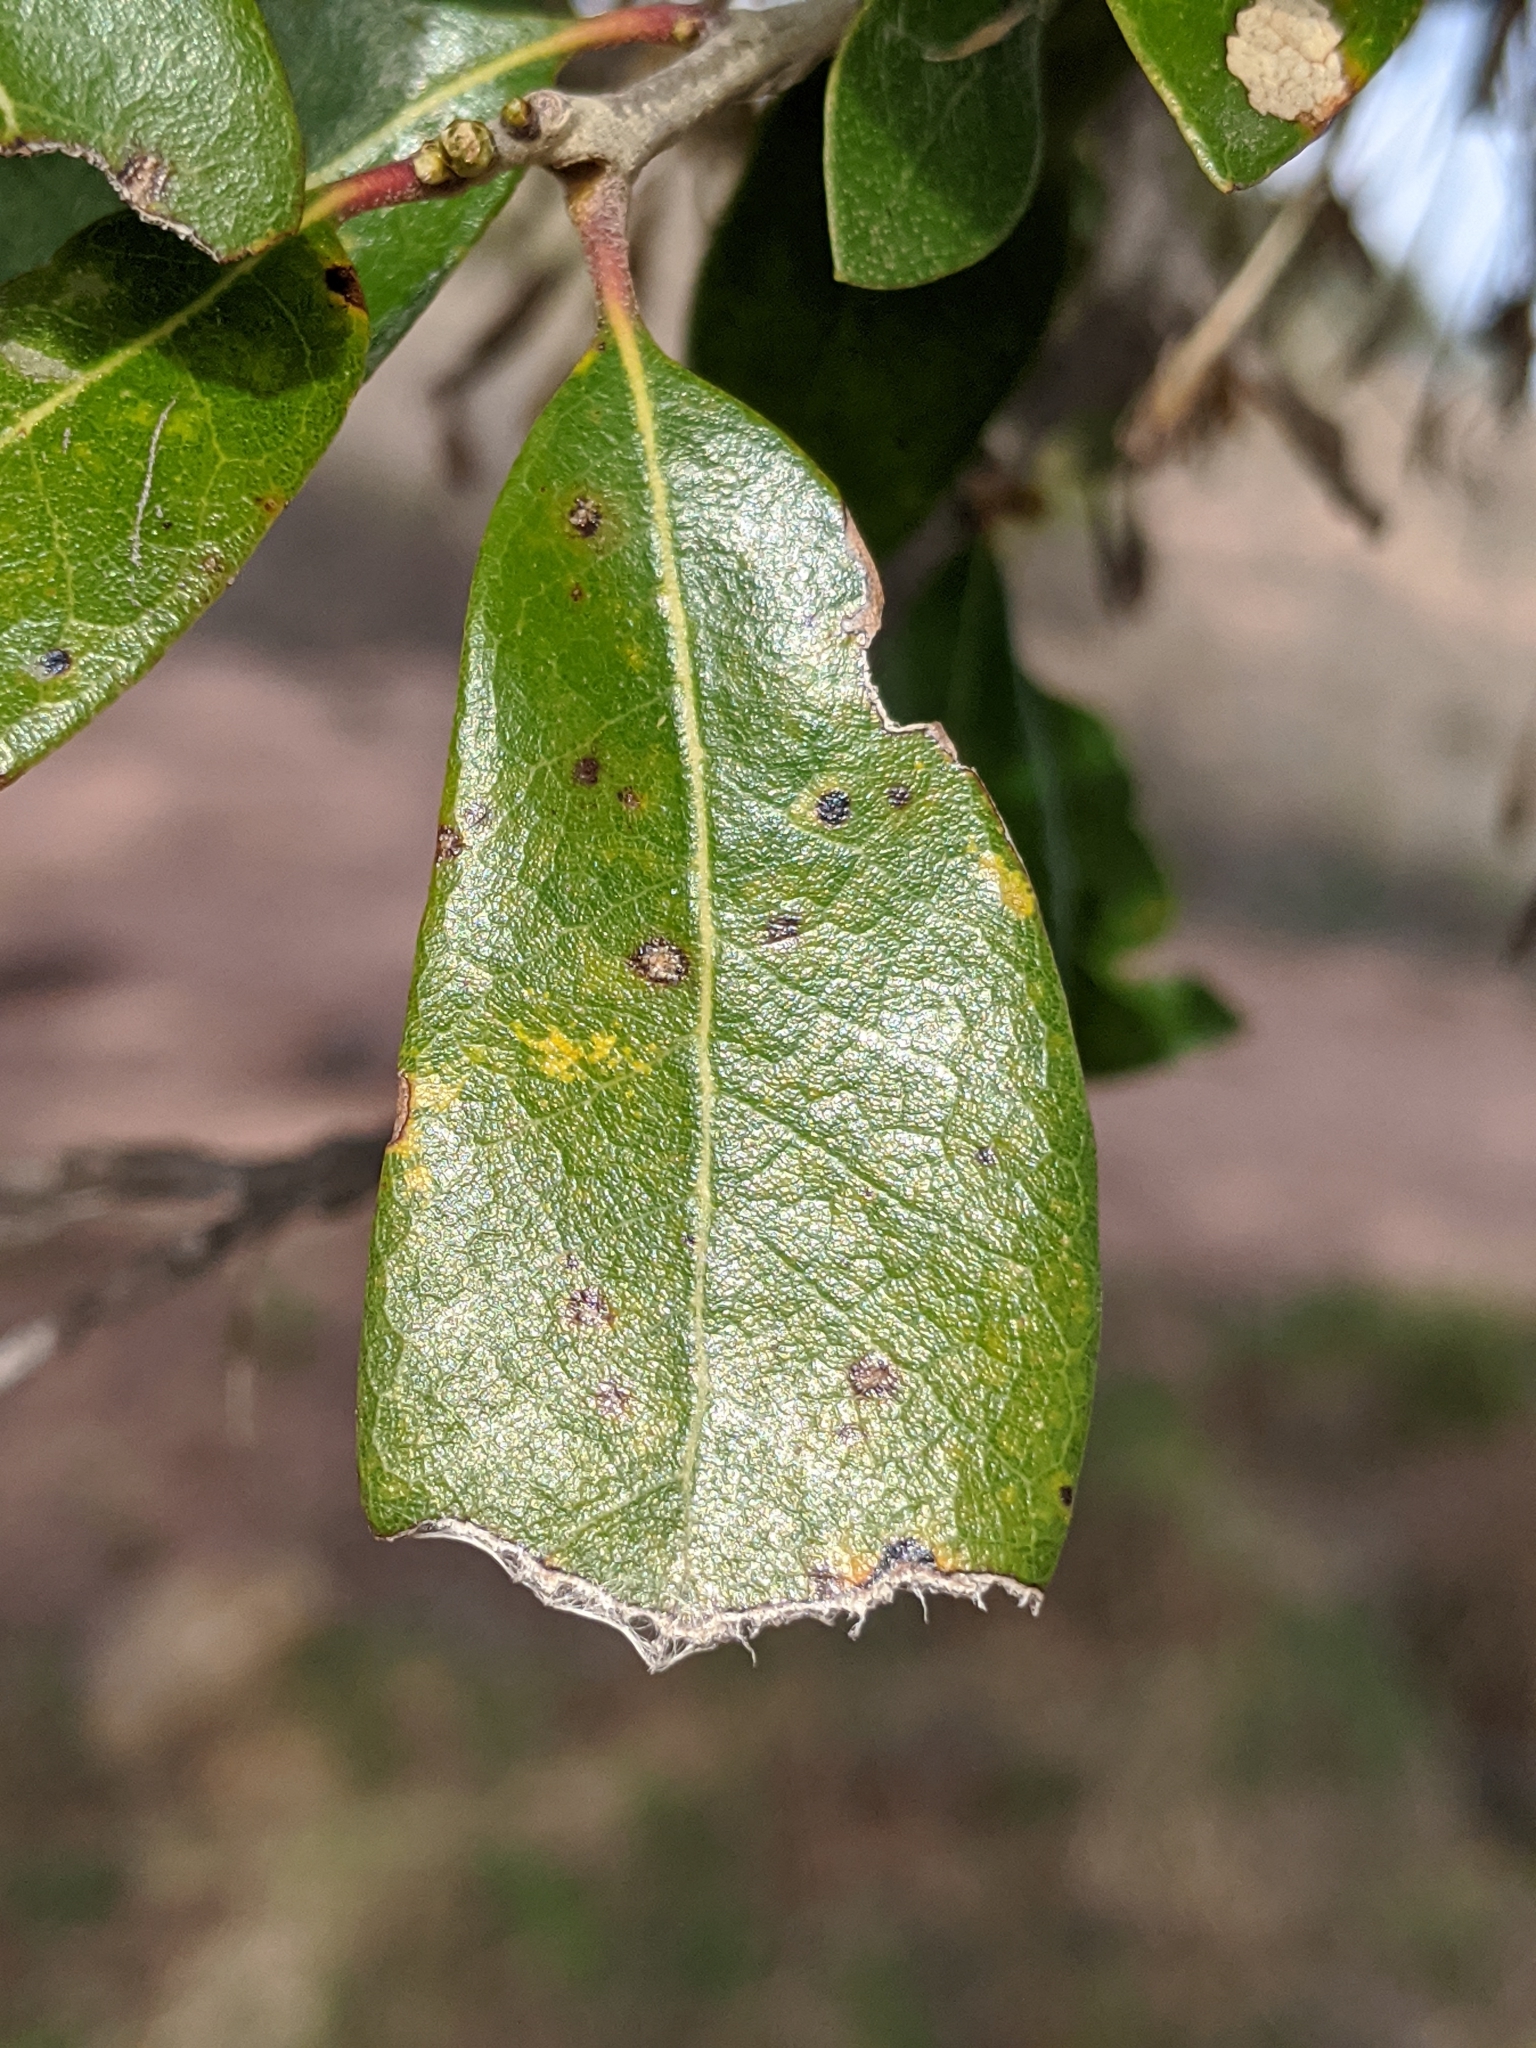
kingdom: Plantae
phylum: Tracheophyta
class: Magnoliopsida
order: Fagales
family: Fagaceae
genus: Quercus
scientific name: Quercus fusiformis
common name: Texas live oak
